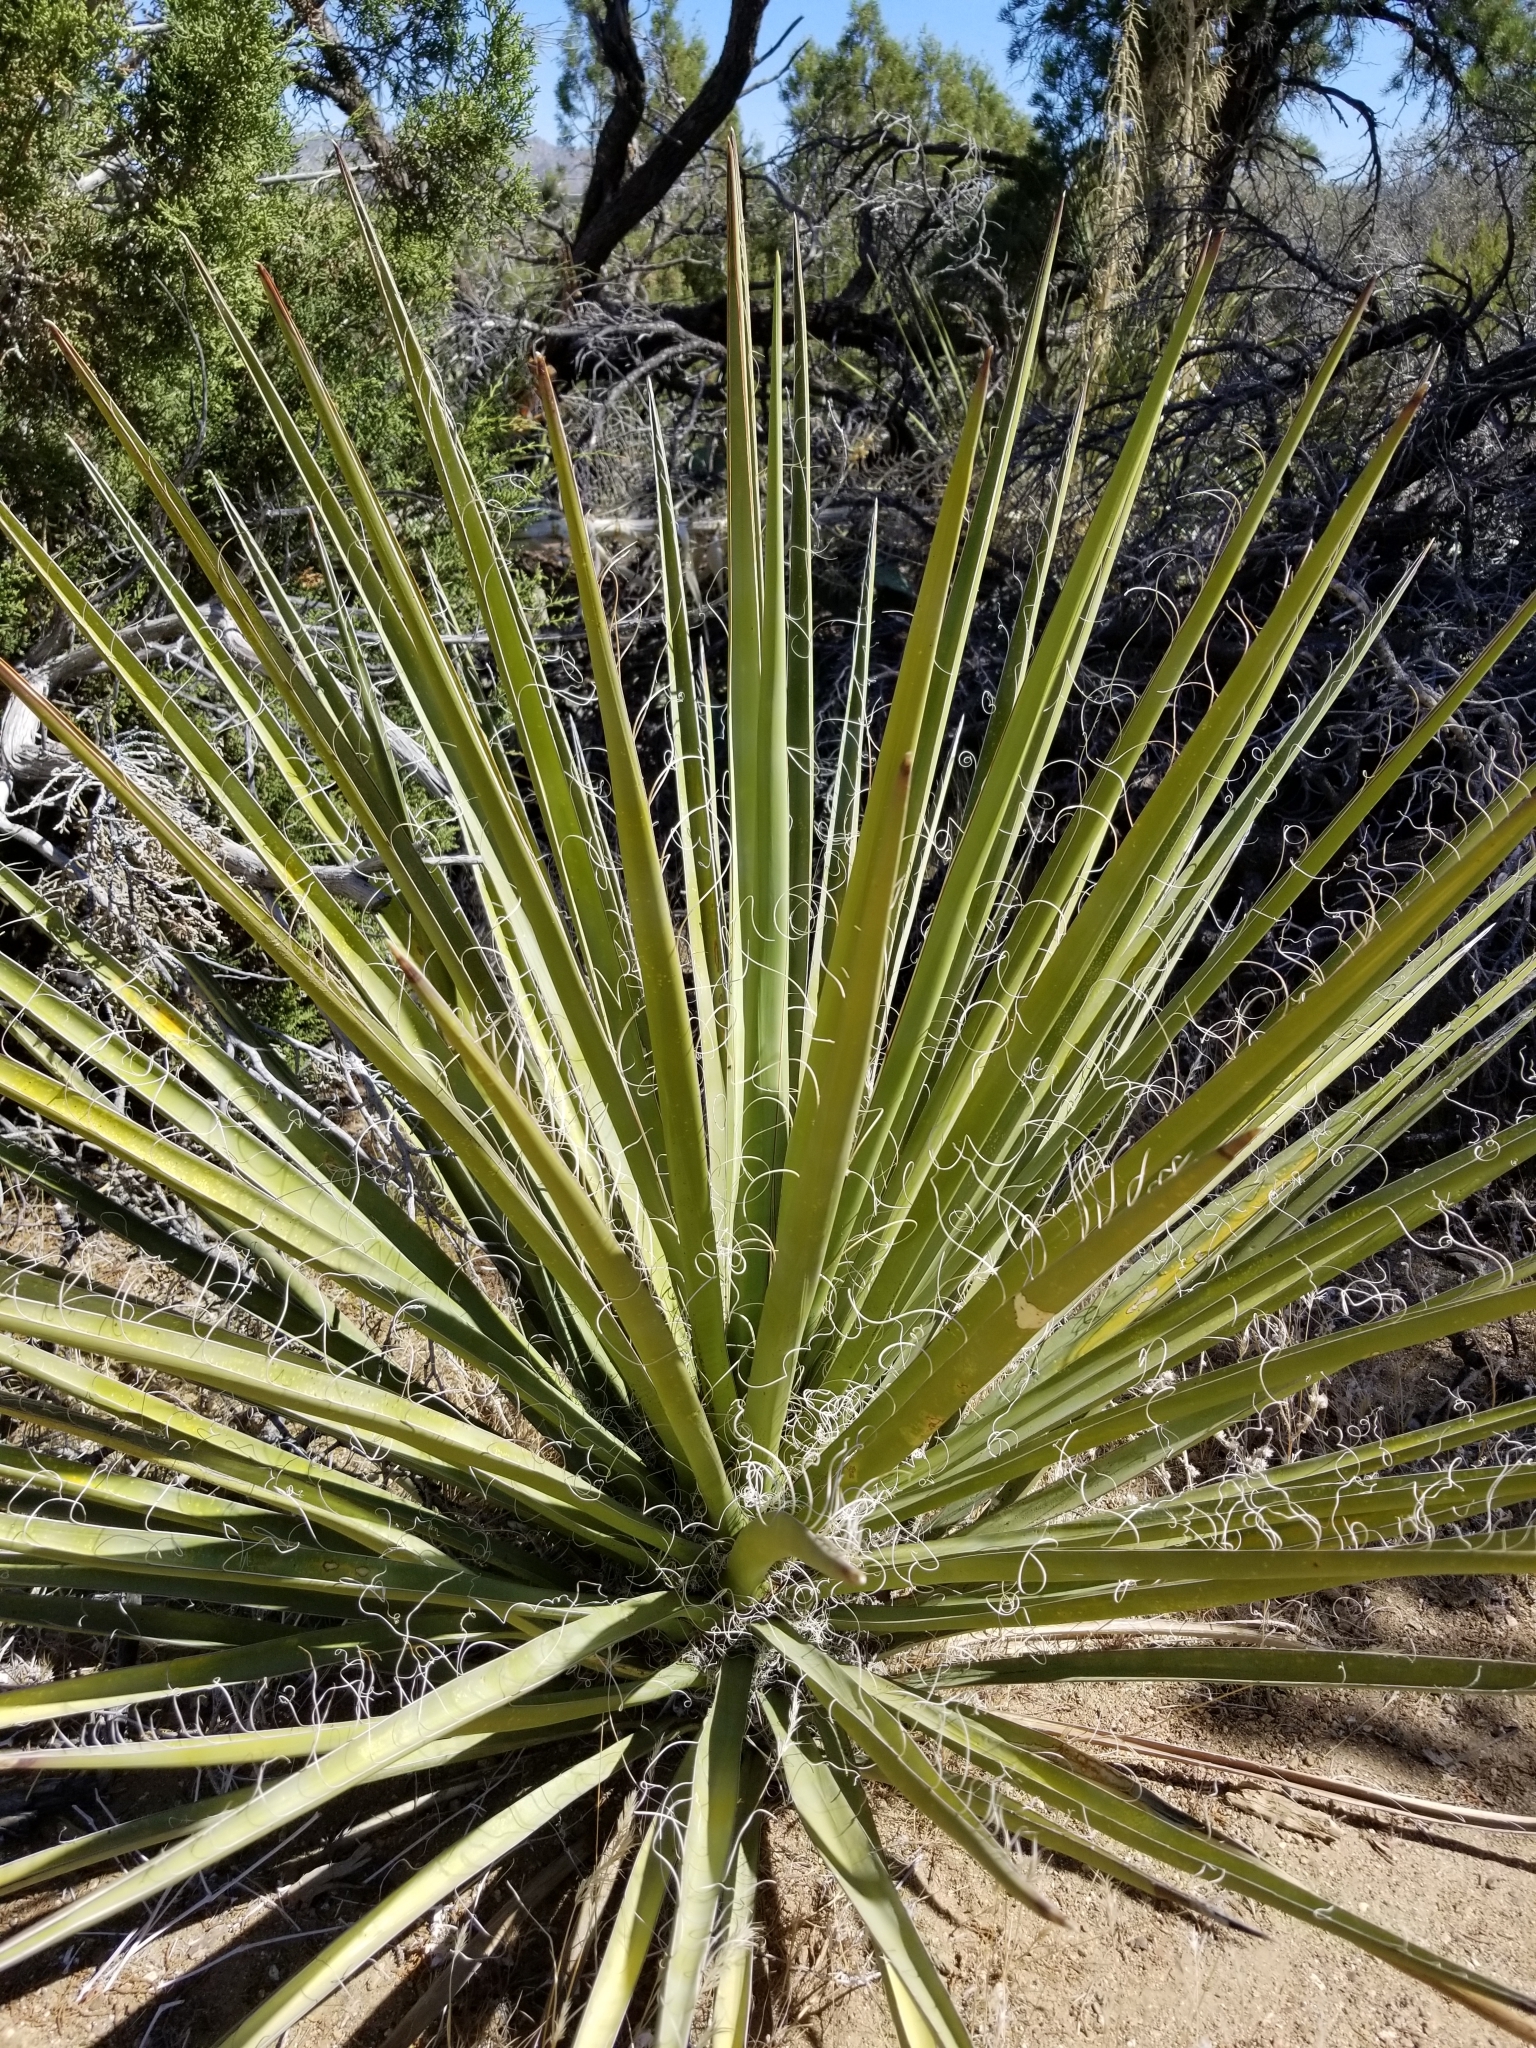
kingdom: Plantae
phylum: Tracheophyta
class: Liliopsida
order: Asparagales
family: Asparagaceae
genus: Yucca
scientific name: Yucca schidigera
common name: Mojave yucca
